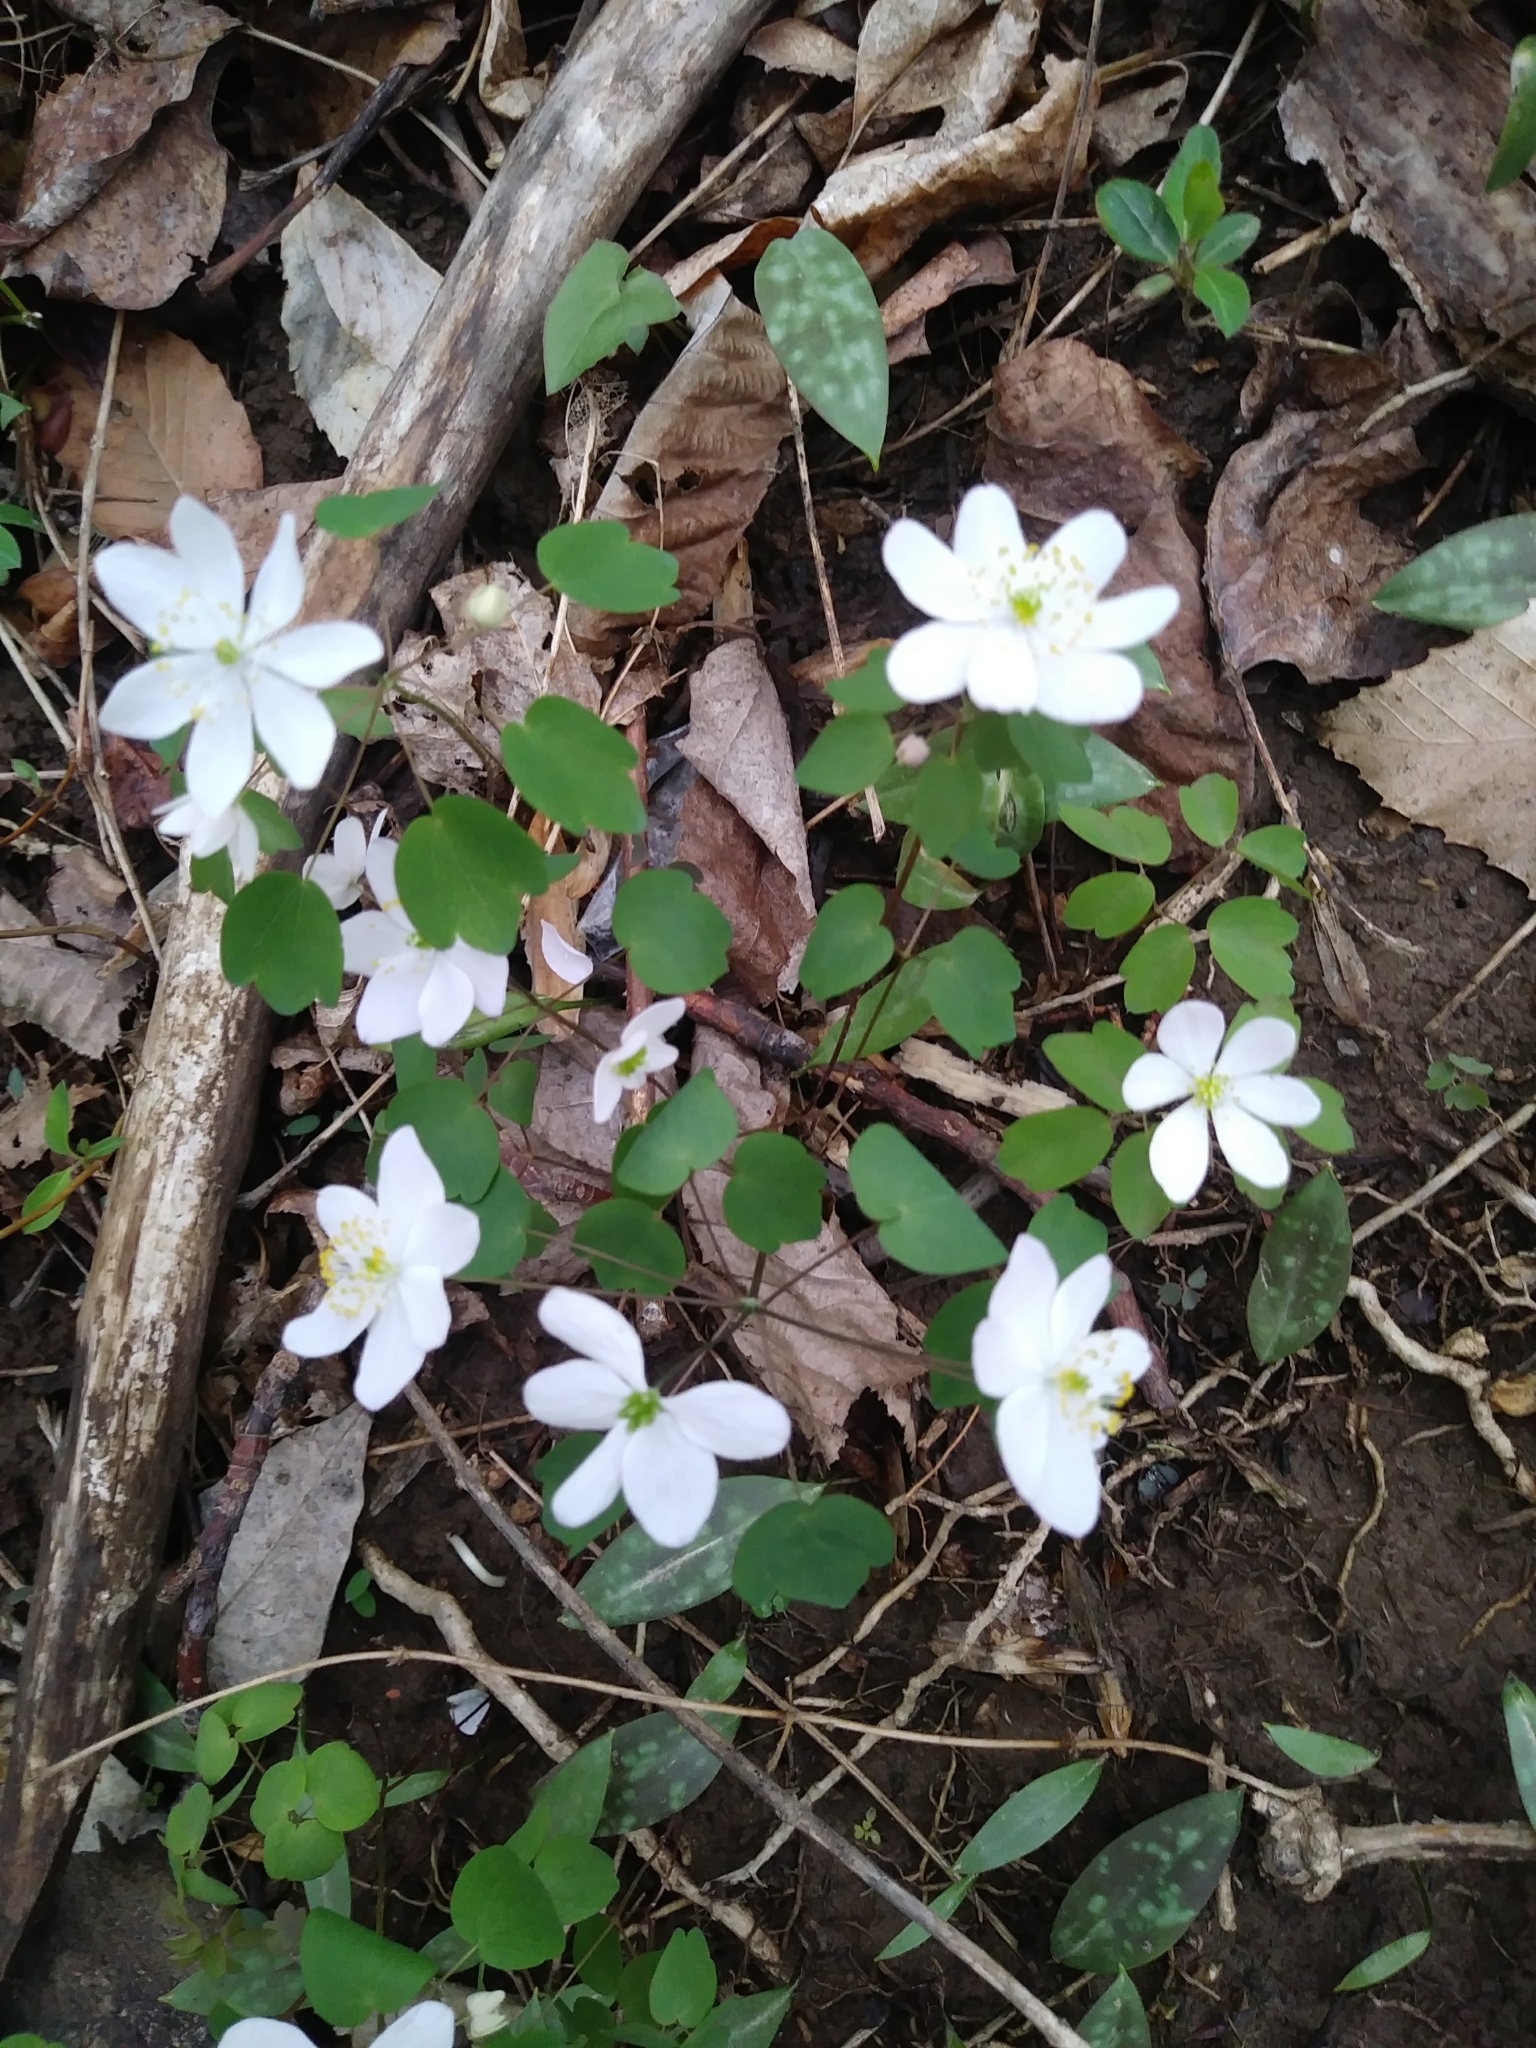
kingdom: Plantae
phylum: Tracheophyta
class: Magnoliopsida
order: Ranunculales
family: Ranunculaceae
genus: Thalictrum
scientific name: Thalictrum thalictroides
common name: Rue-anemone
